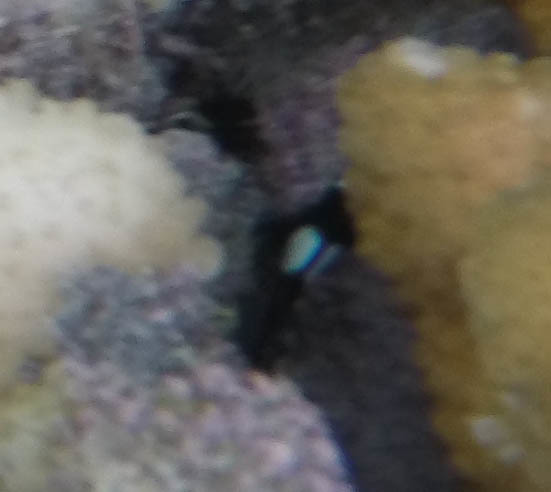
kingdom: Animalia
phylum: Chordata
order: Perciformes
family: Pomacentridae
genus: Dascyllus
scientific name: Dascyllus albisella
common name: Hawaiian dascyllus
